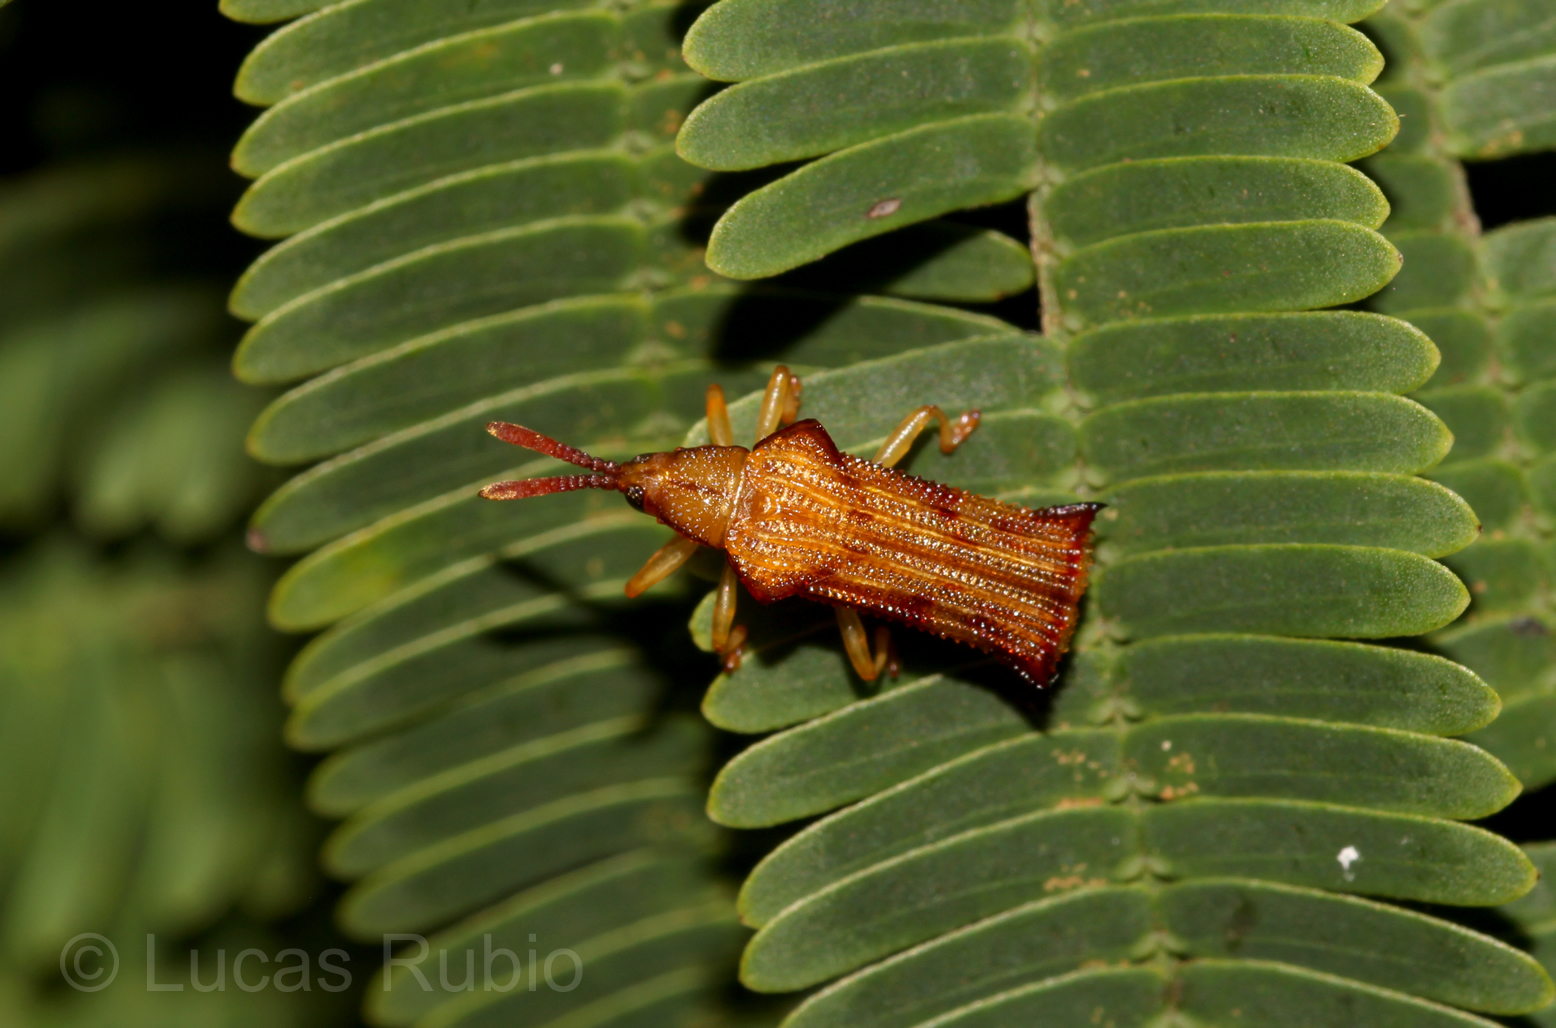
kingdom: Animalia
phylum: Arthropoda
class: Insecta
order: Coleoptera
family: Chrysomelidae
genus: Octhispa
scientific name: Octhispa elongata
